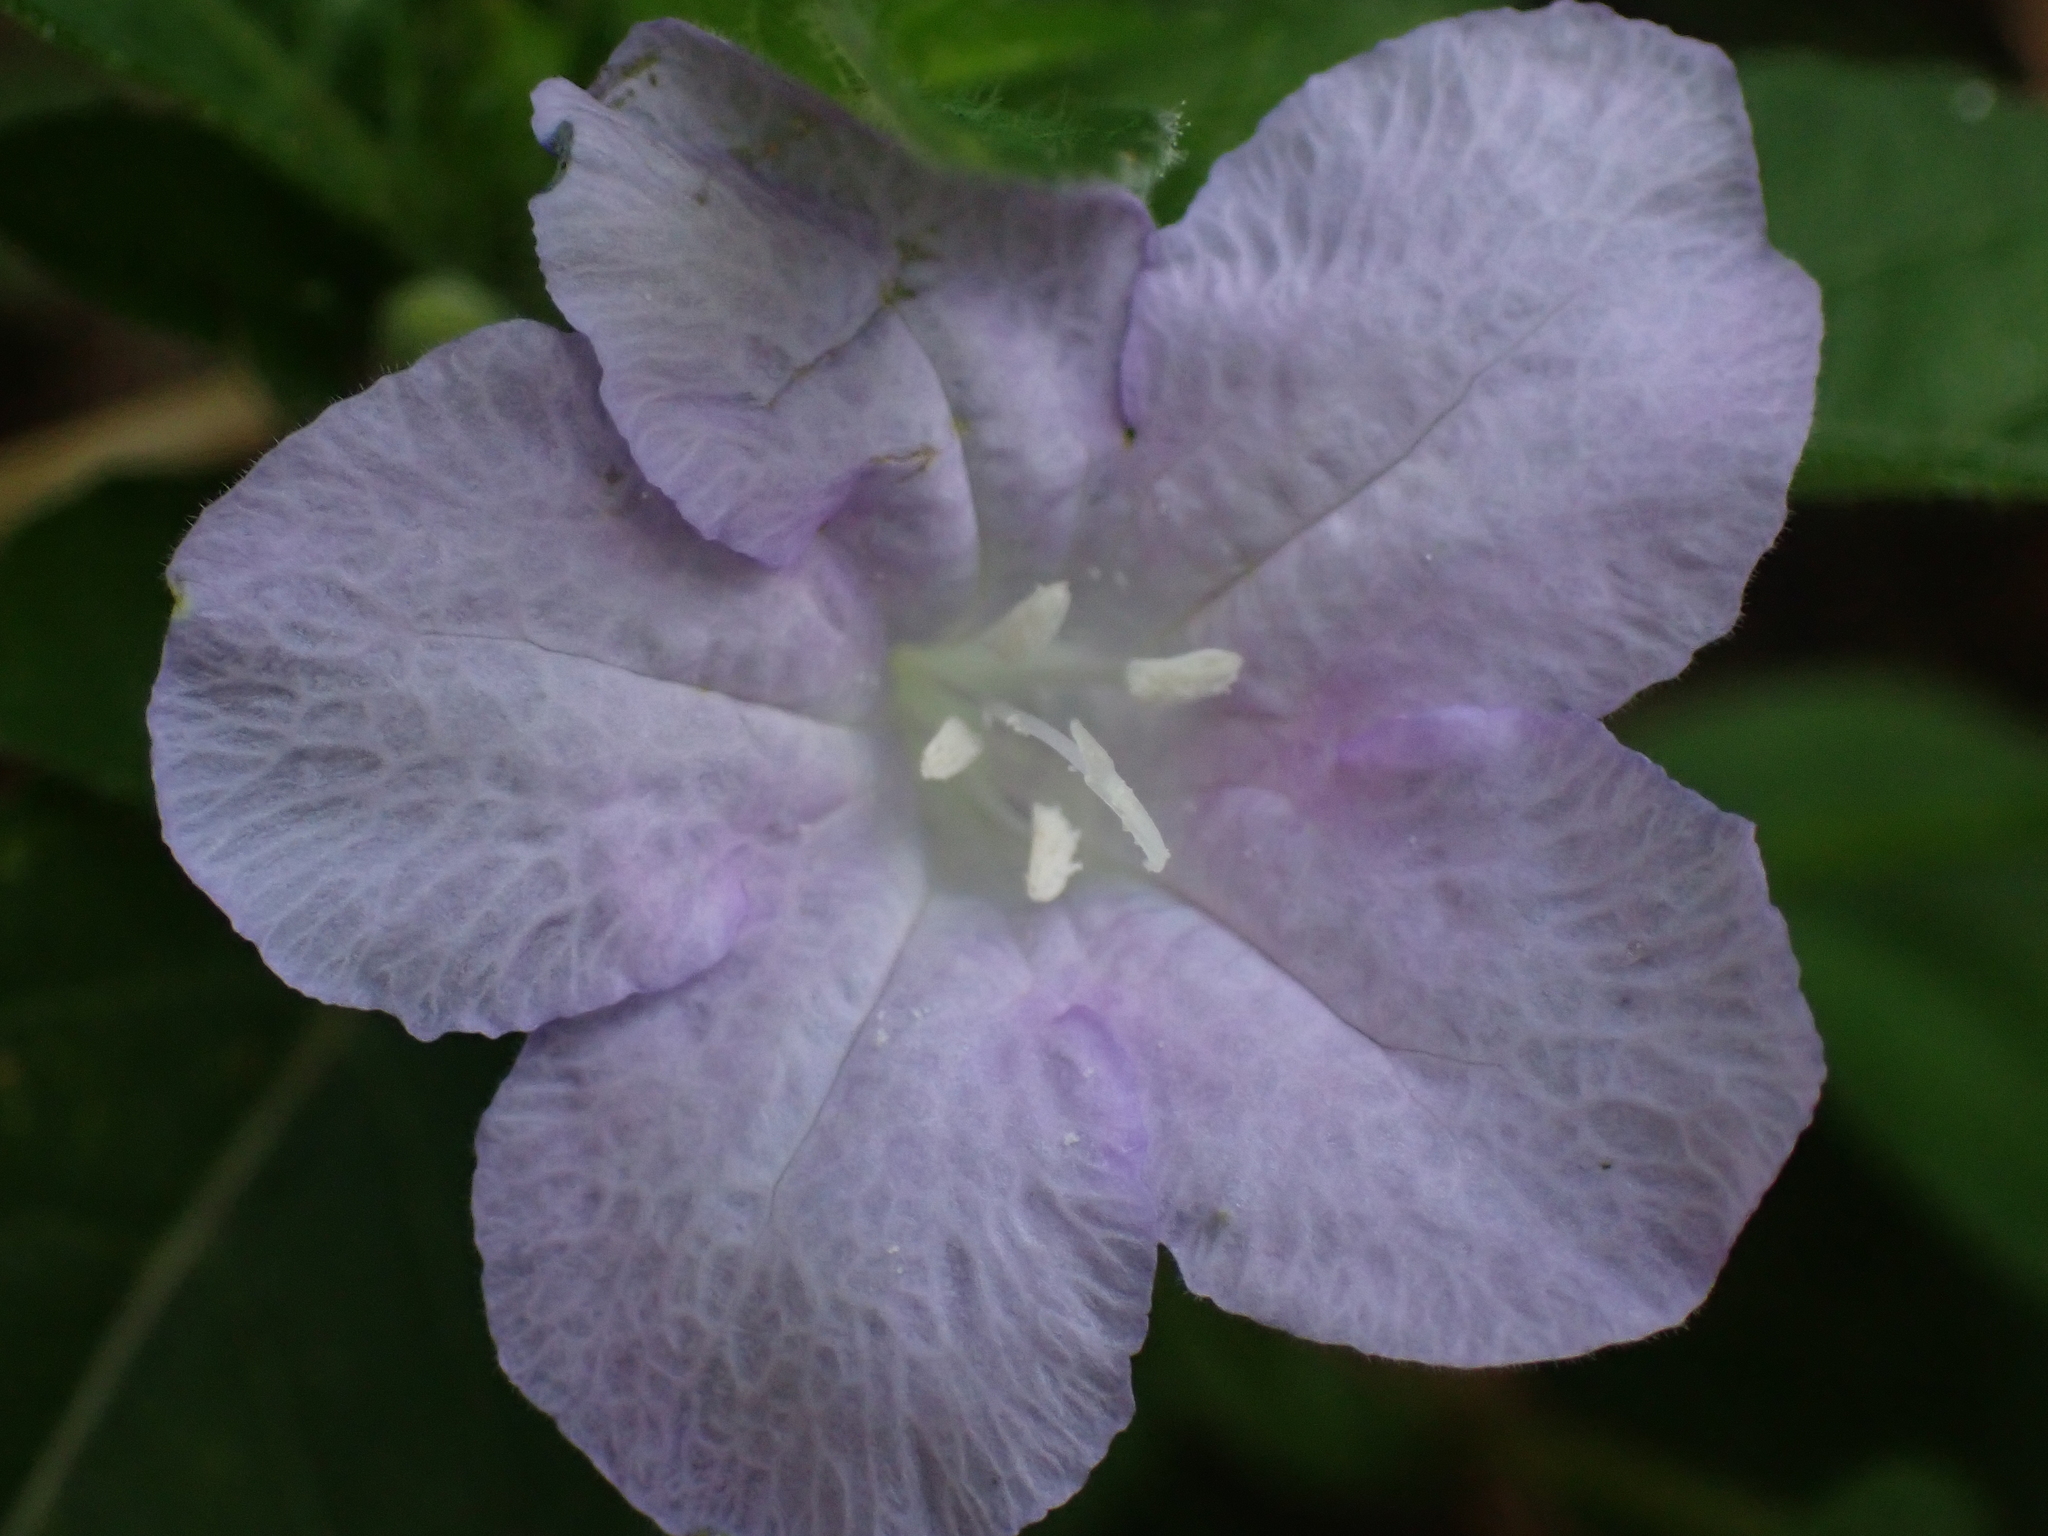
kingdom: Plantae
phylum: Tracheophyta
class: Magnoliopsida
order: Lamiales
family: Acanthaceae
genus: Ruellia
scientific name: Ruellia caroliniensis
